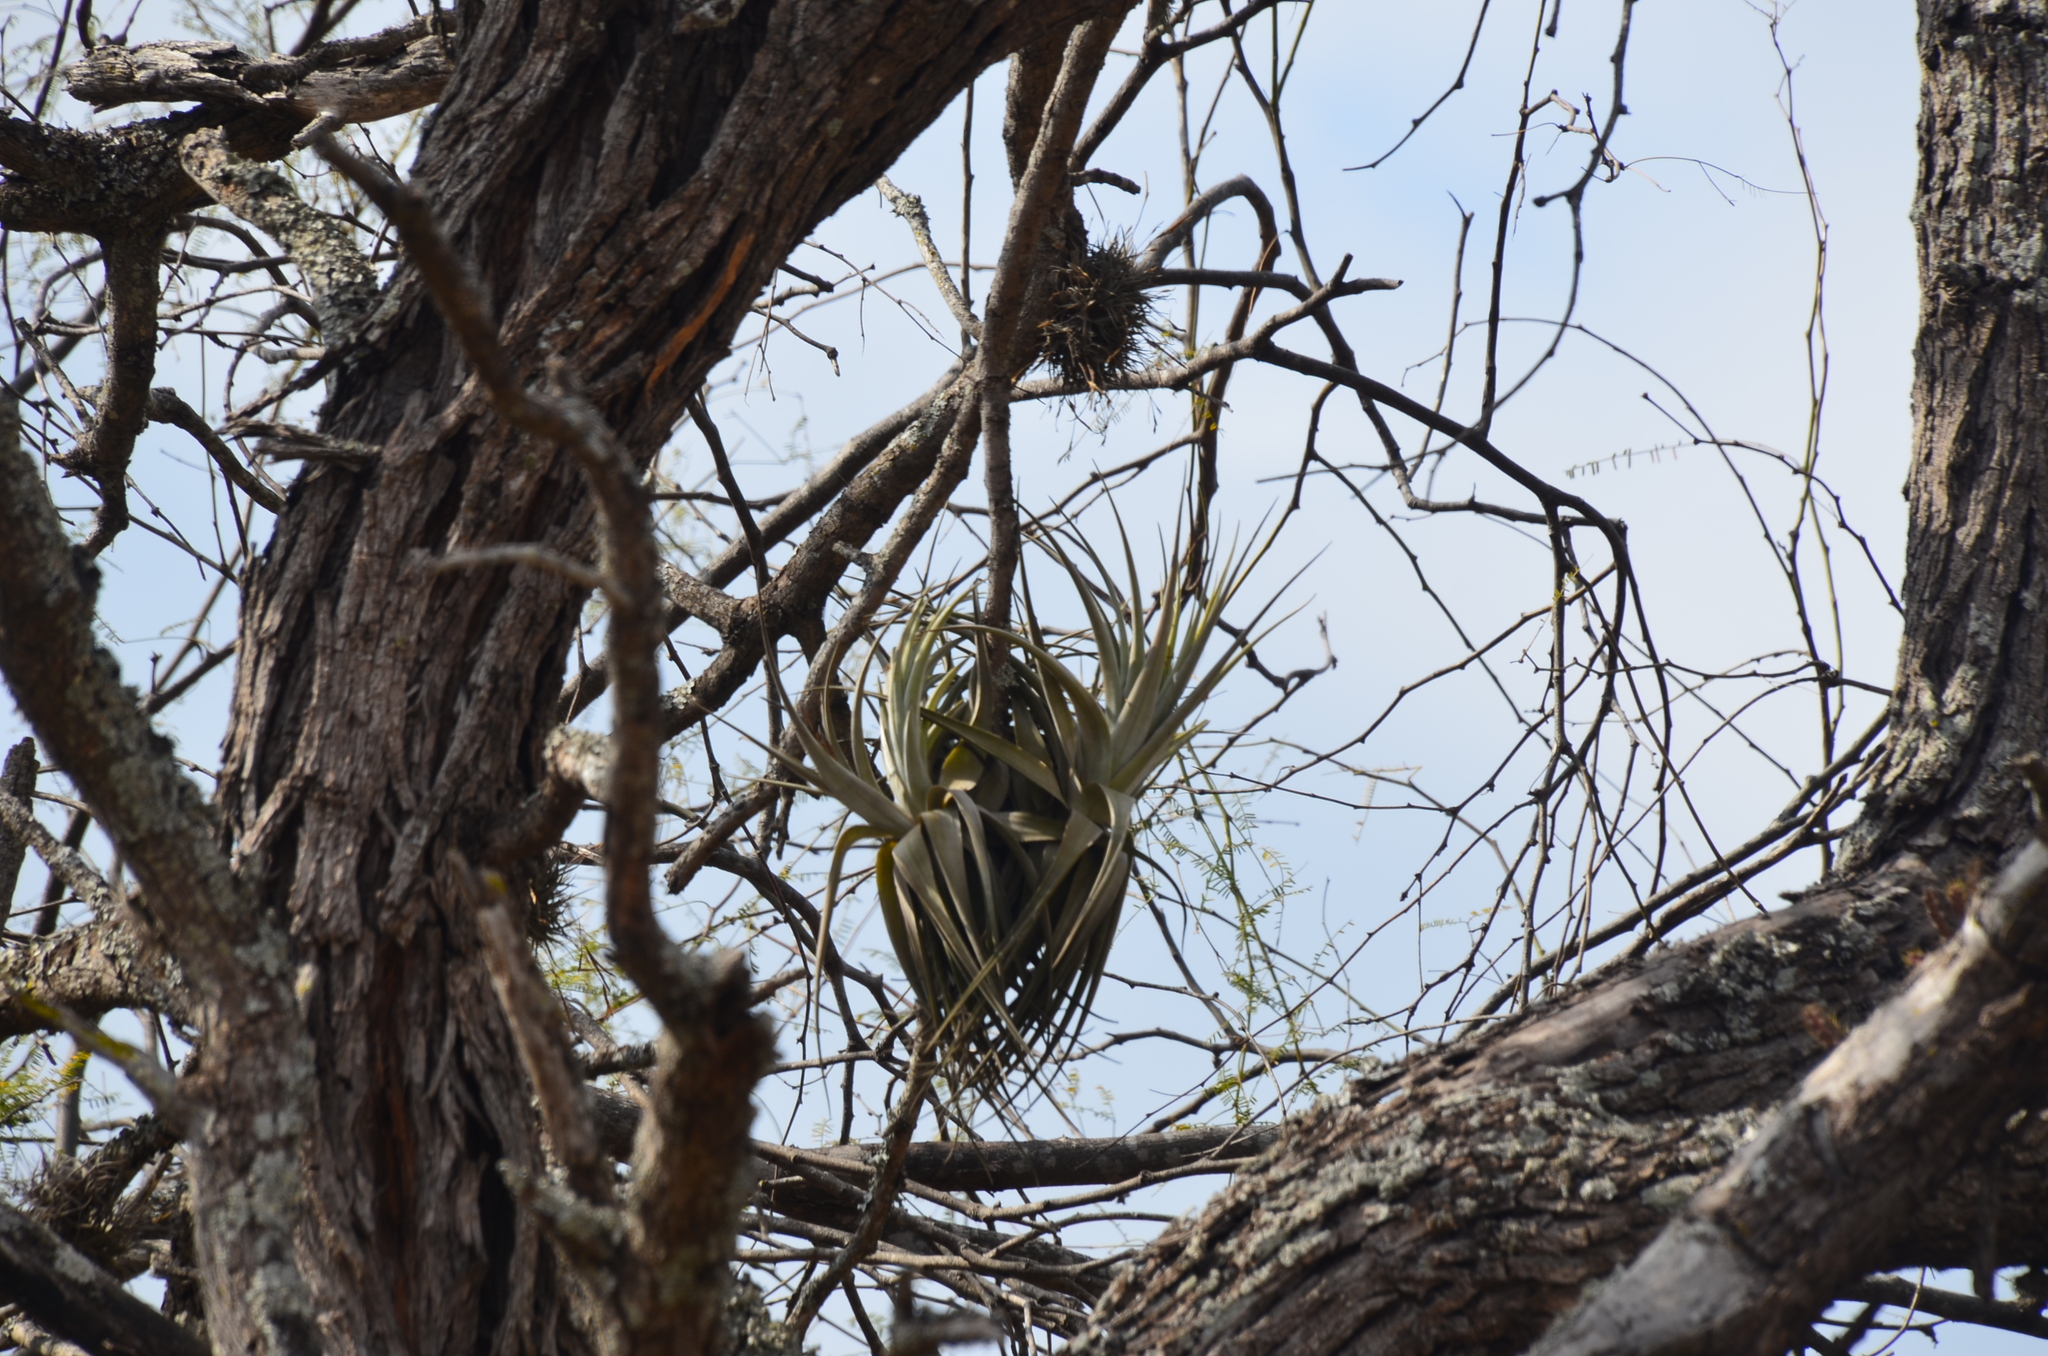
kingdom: Plantae
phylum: Tracheophyta
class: Liliopsida
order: Poales
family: Bromeliaceae
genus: Tillandsia
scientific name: Tillandsia lorentziana
